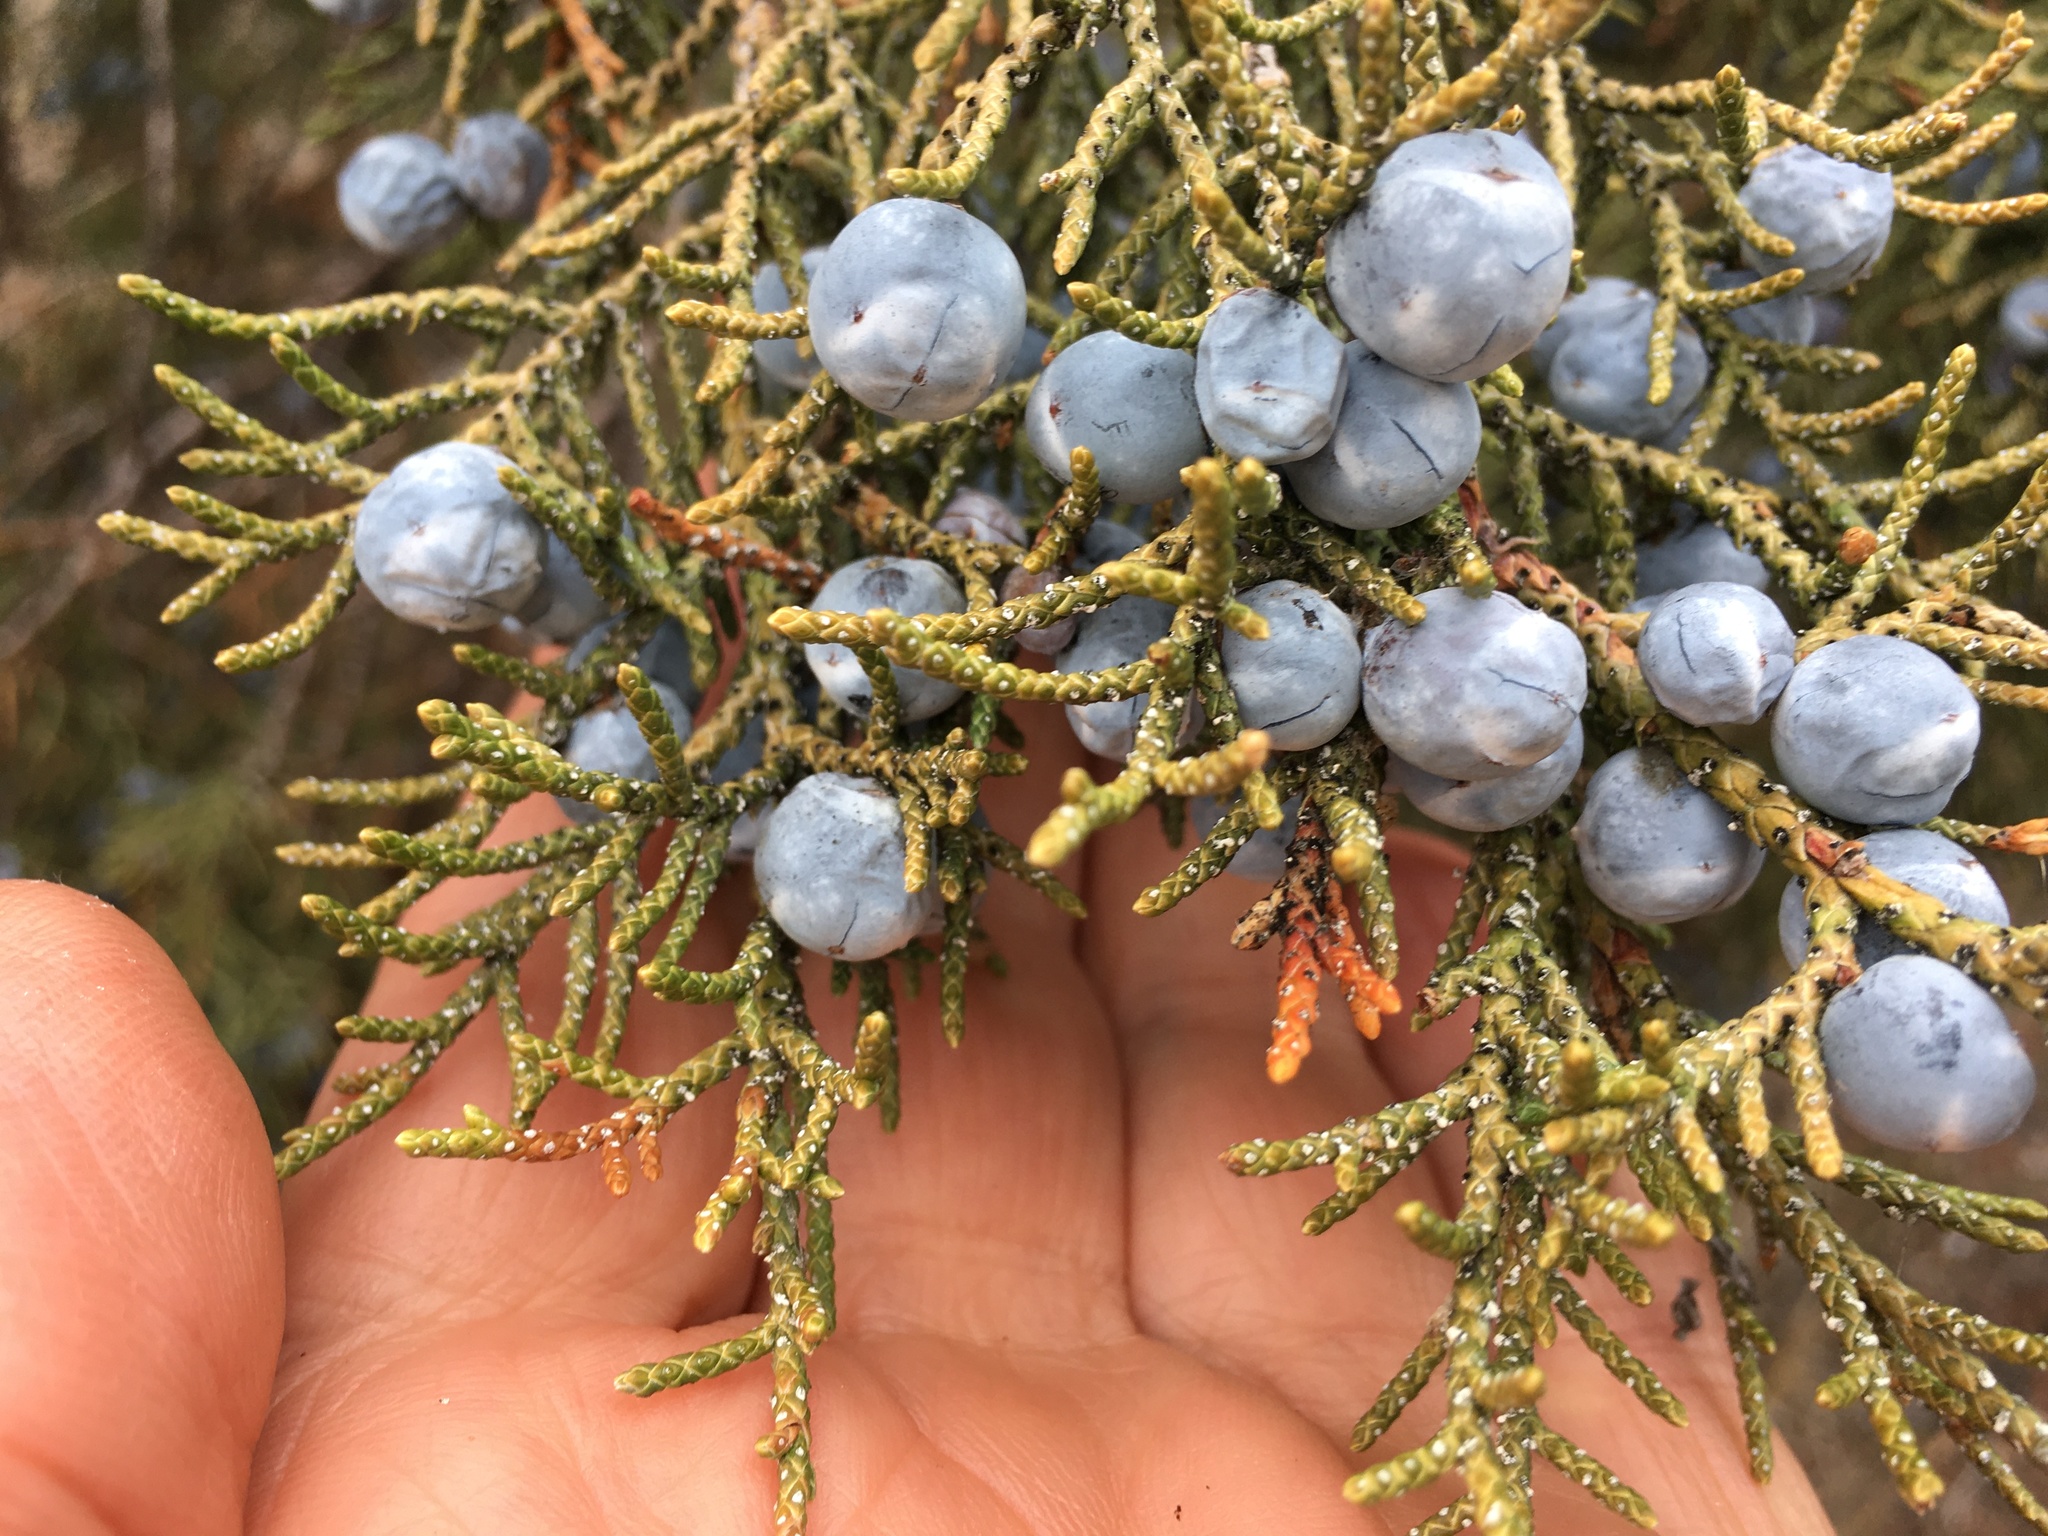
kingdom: Plantae
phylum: Tracheophyta
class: Pinopsida
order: Pinales
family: Cupressaceae
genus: Juniperus
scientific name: Juniperus occidentalis
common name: Western juniper
